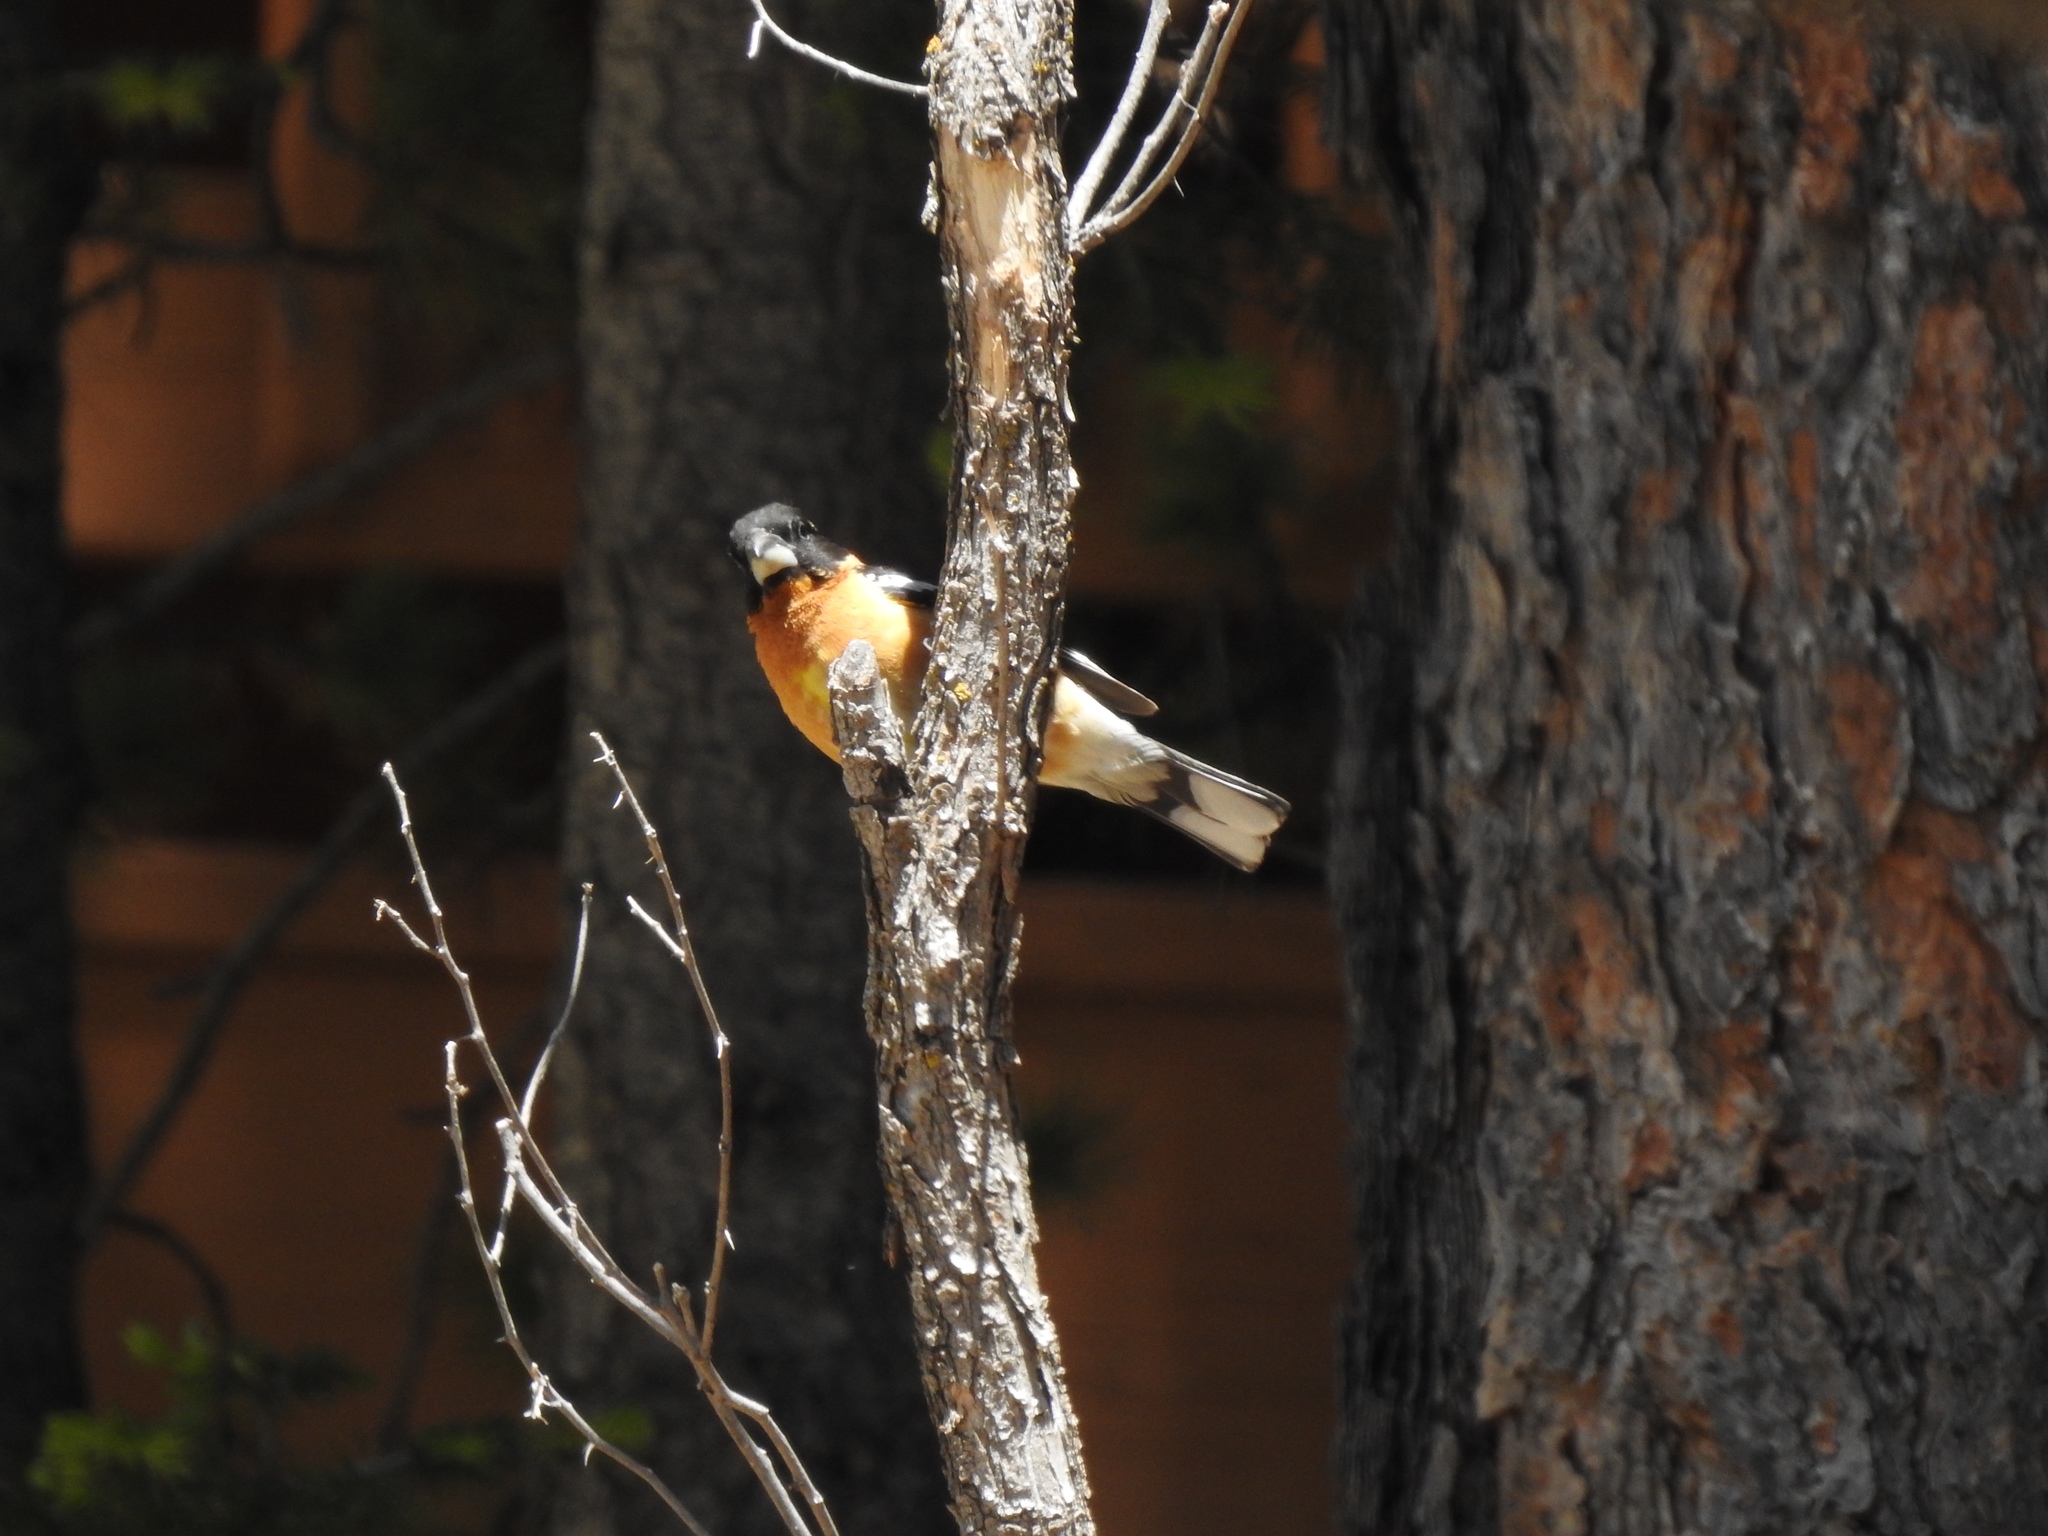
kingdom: Animalia
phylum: Chordata
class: Aves
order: Passeriformes
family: Cardinalidae
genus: Pheucticus
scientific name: Pheucticus melanocephalus
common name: Black-headed grosbeak
